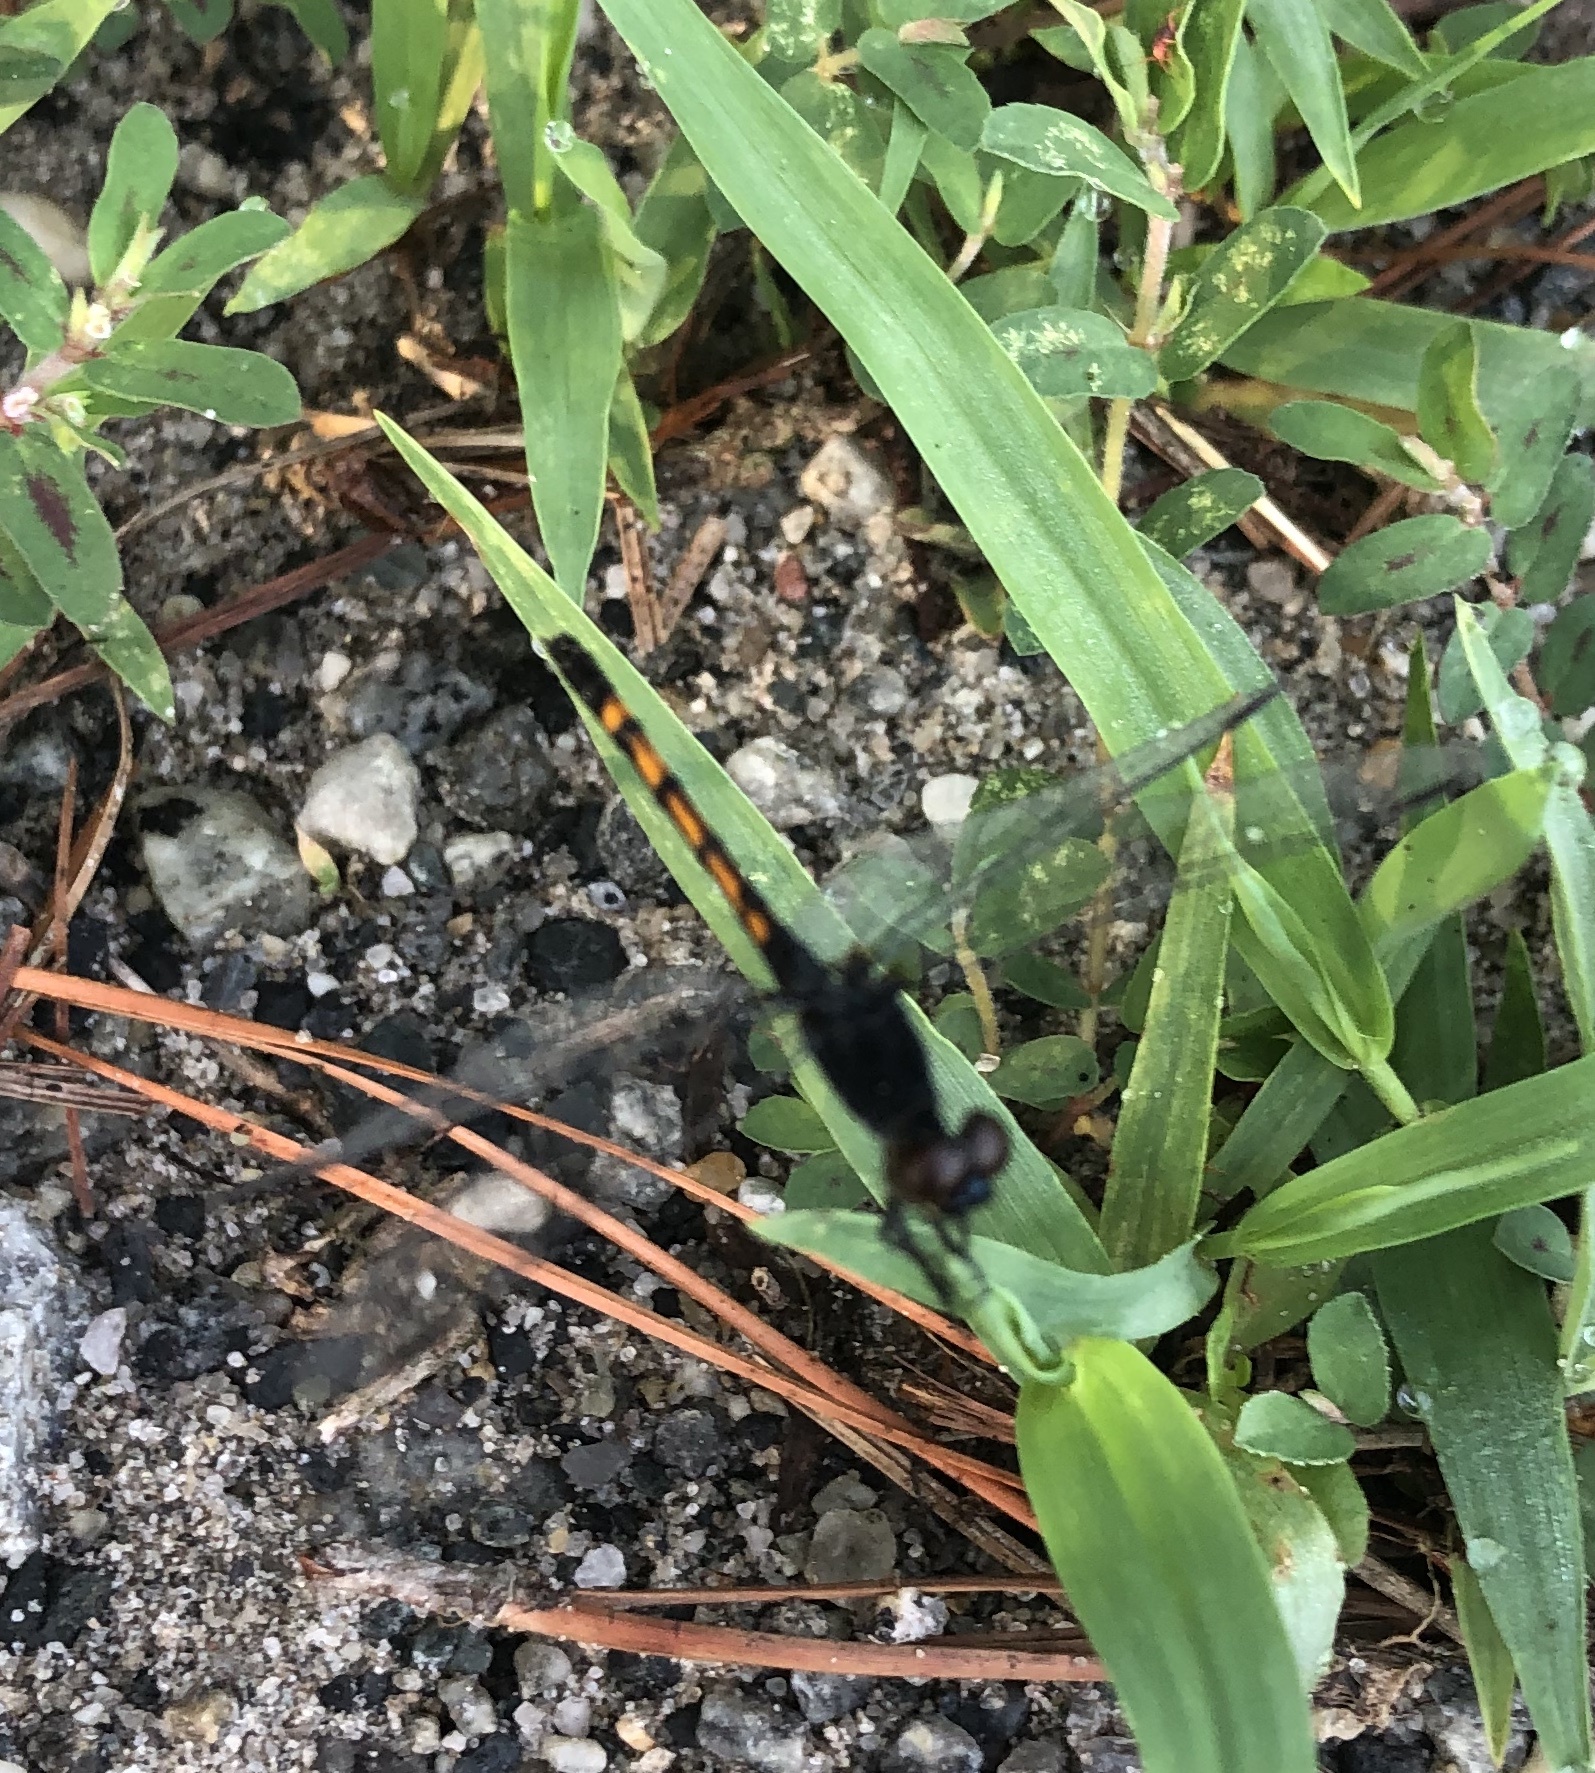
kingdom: Animalia
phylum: Arthropoda
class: Insecta
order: Odonata
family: Libellulidae
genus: Erythrodiplax
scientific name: Erythrodiplax berenice
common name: Seaside dragonlet
